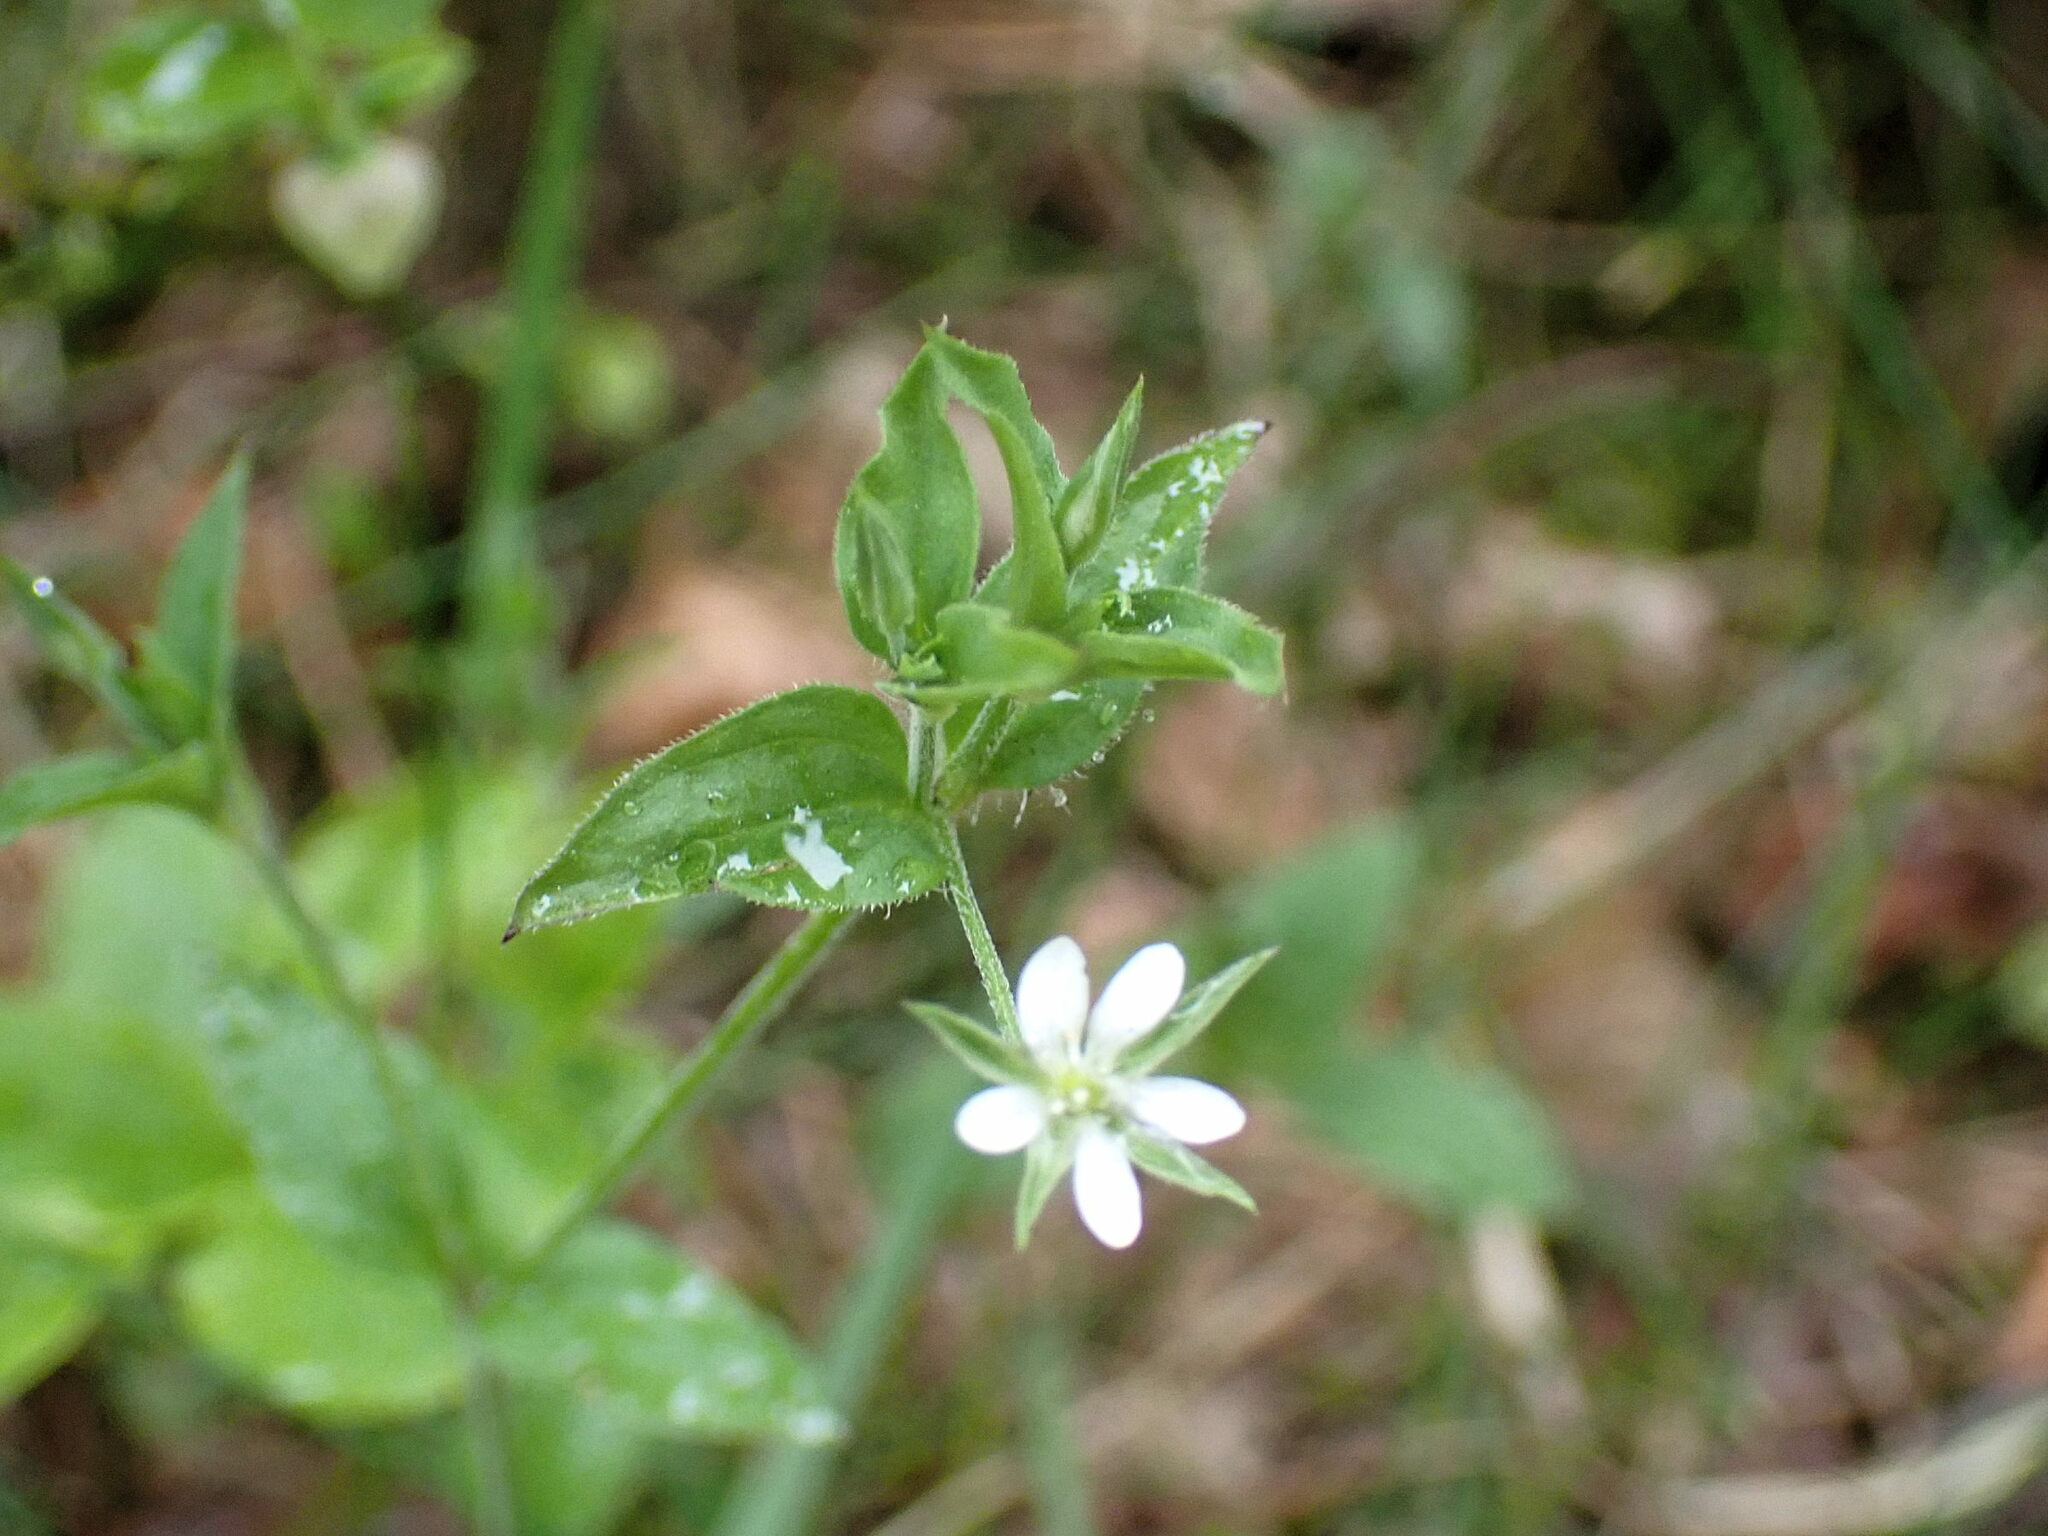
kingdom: Plantae
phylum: Tracheophyta
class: Magnoliopsida
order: Caryophyllales
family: Caryophyllaceae
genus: Moehringia
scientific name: Moehringia trinervia
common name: Three-nerved sandwort
